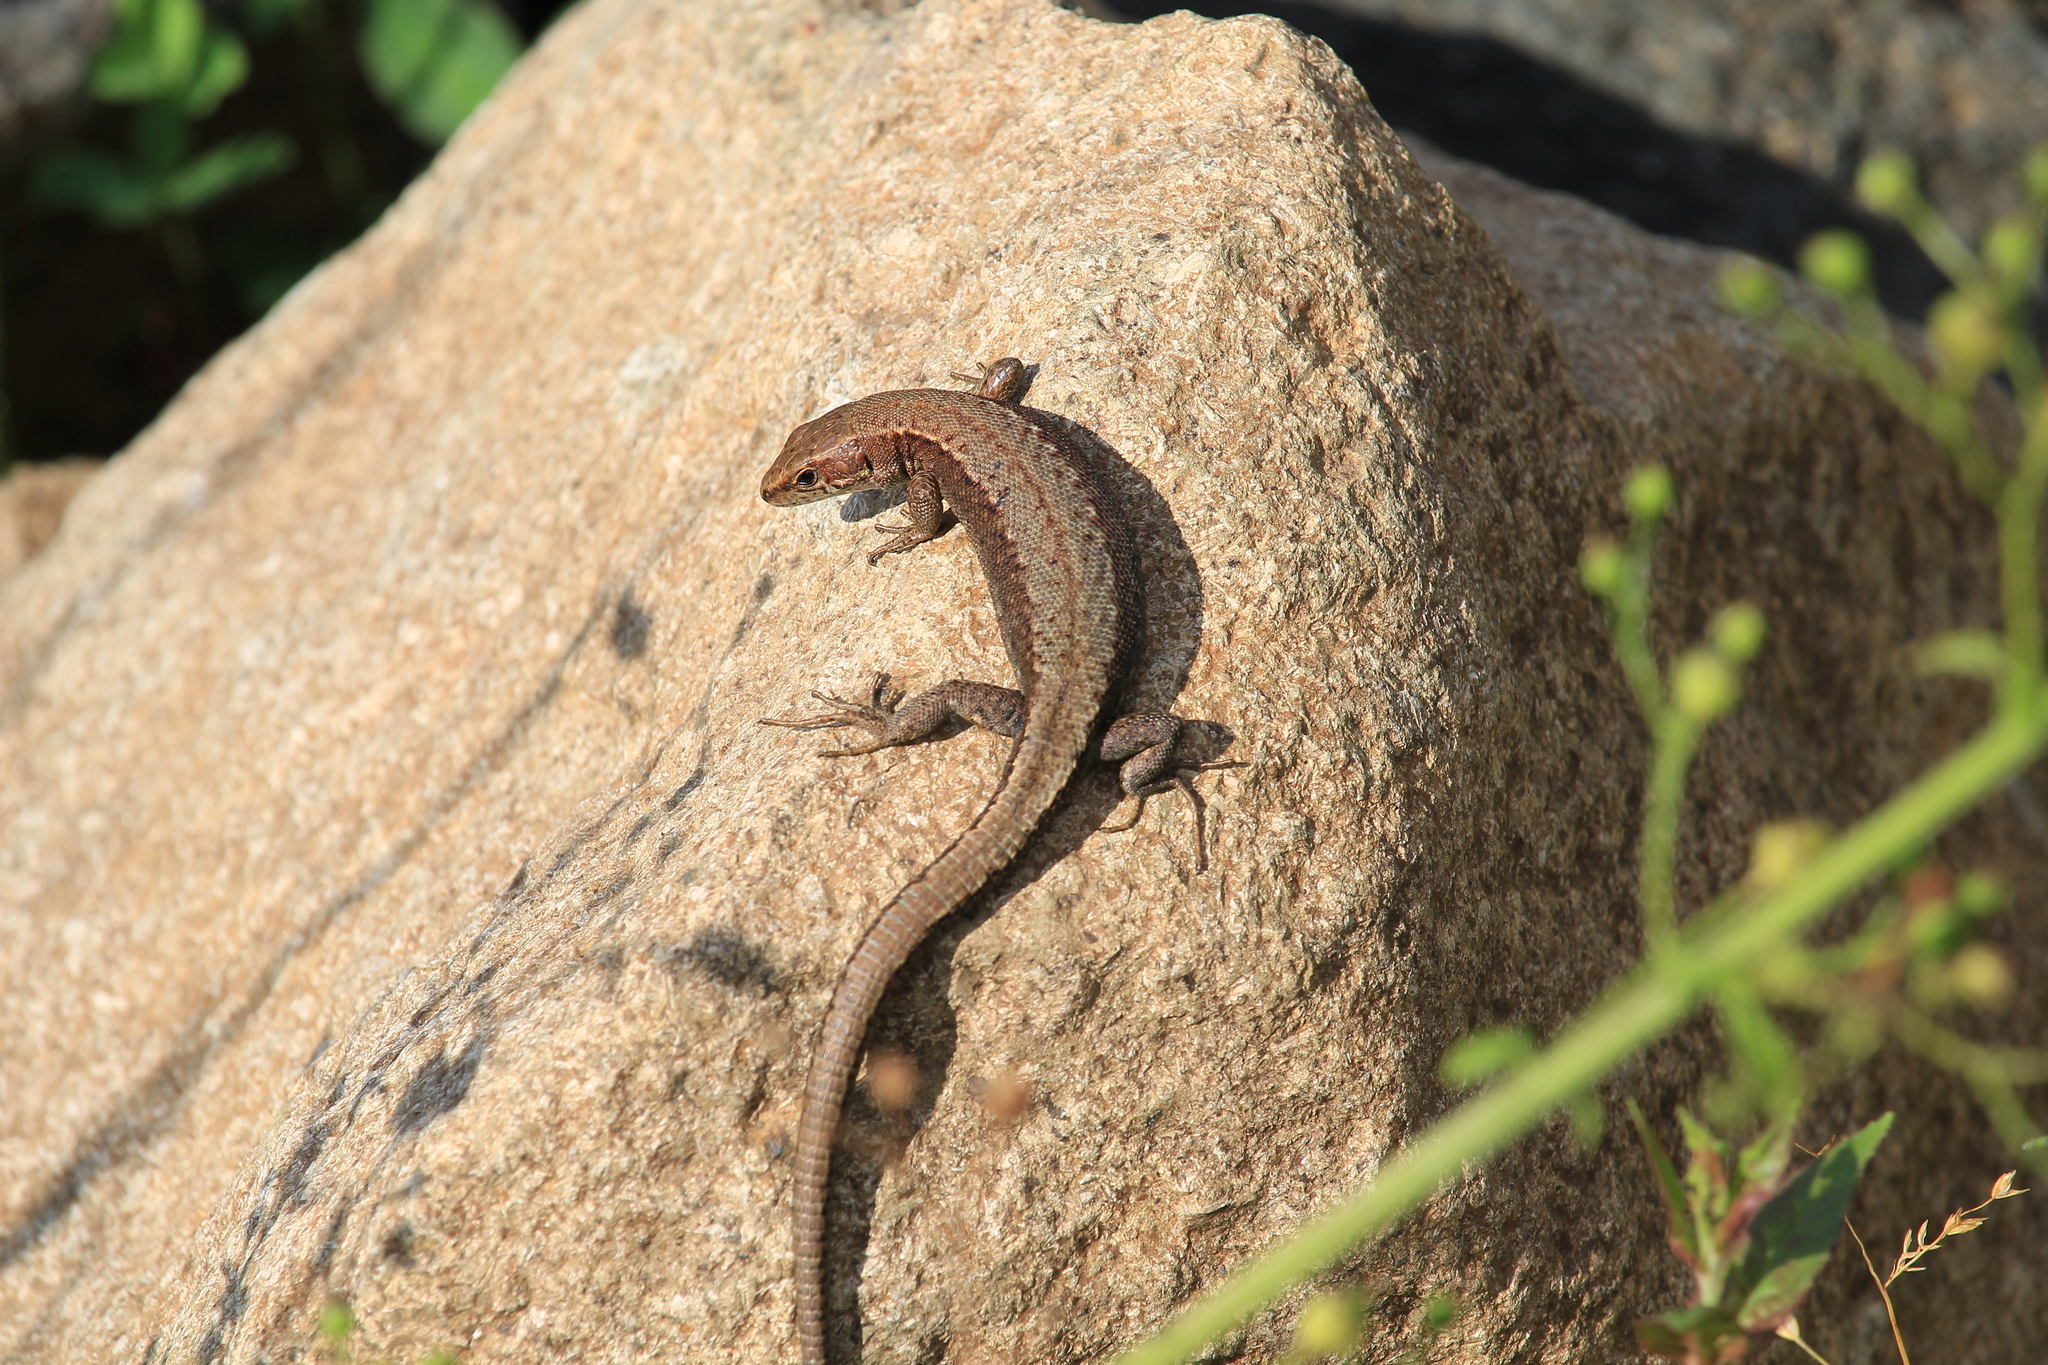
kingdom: Animalia
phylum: Chordata
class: Squamata
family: Lacertidae
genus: Darevskia
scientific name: Darevskia derjugini
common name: Derjugin's lizard
